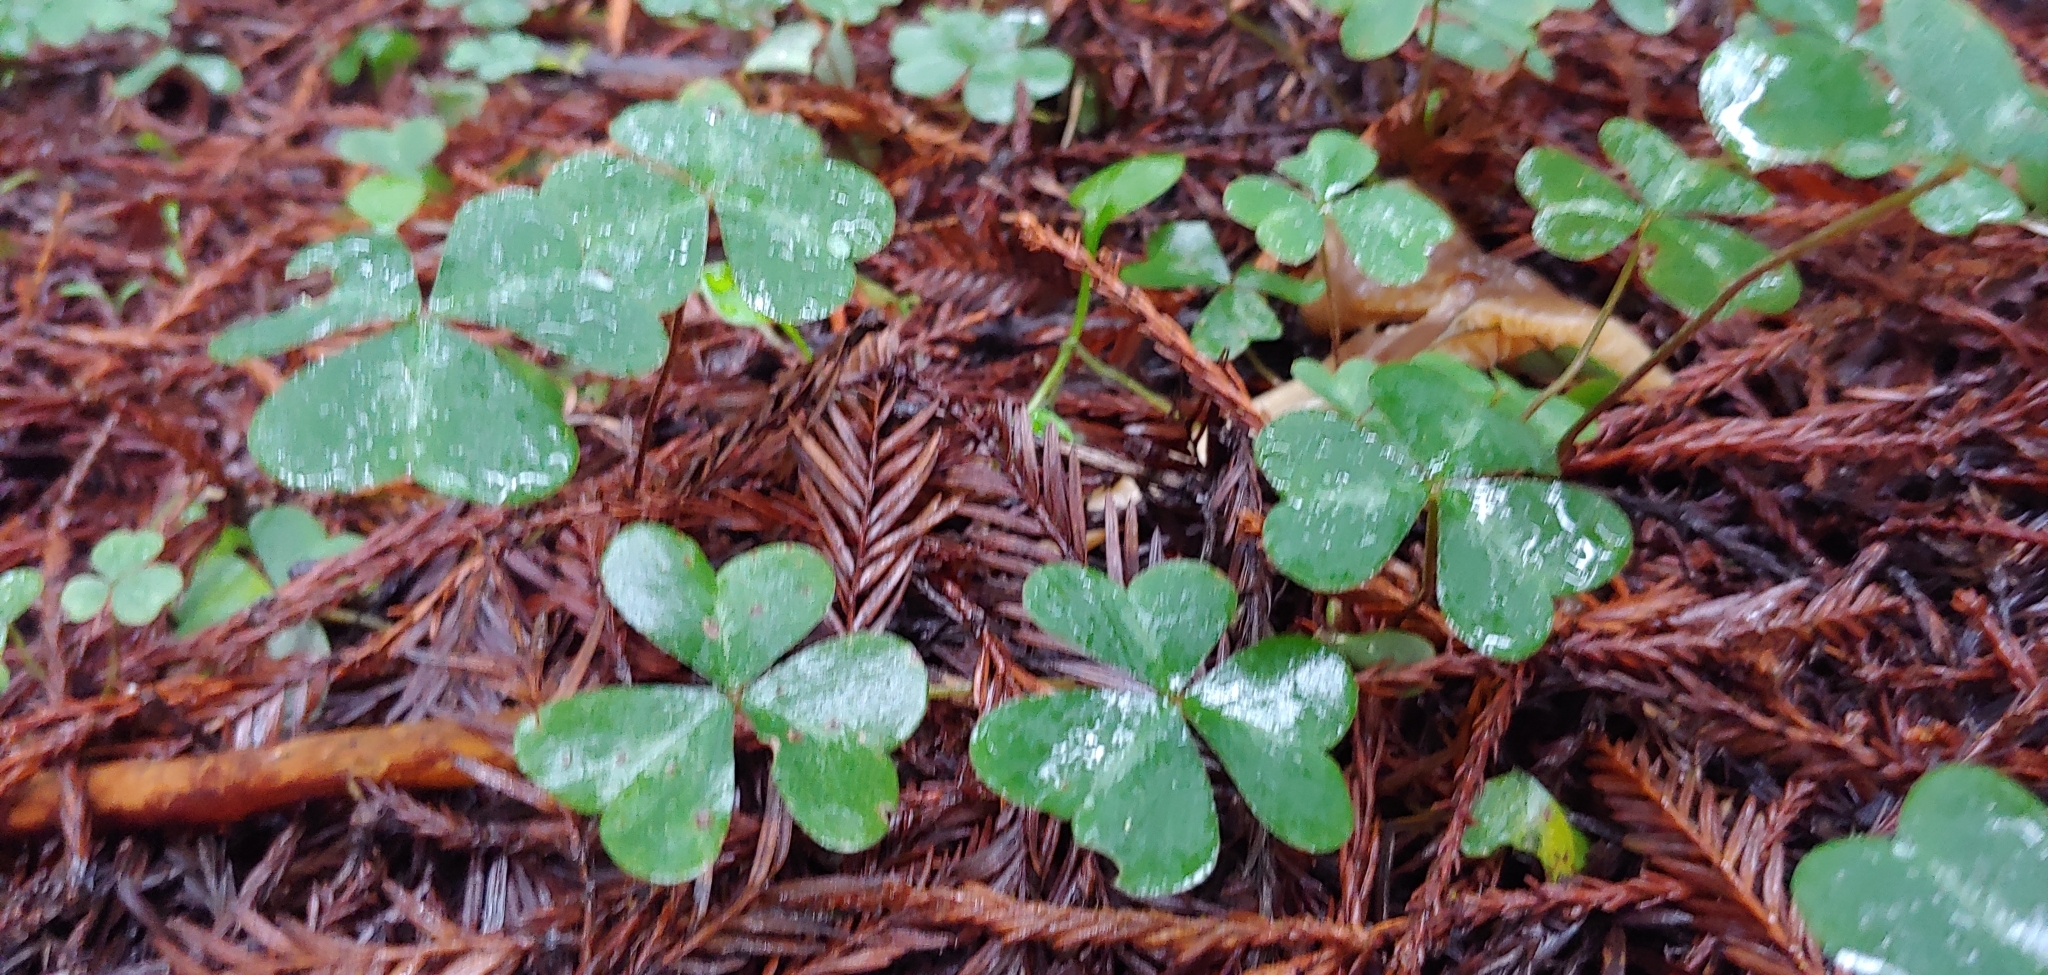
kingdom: Plantae
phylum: Tracheophyta
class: Magnoliopsida
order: Oxalidales
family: Oxalidaceae
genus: Oxalis
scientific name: Oxalis oregana
